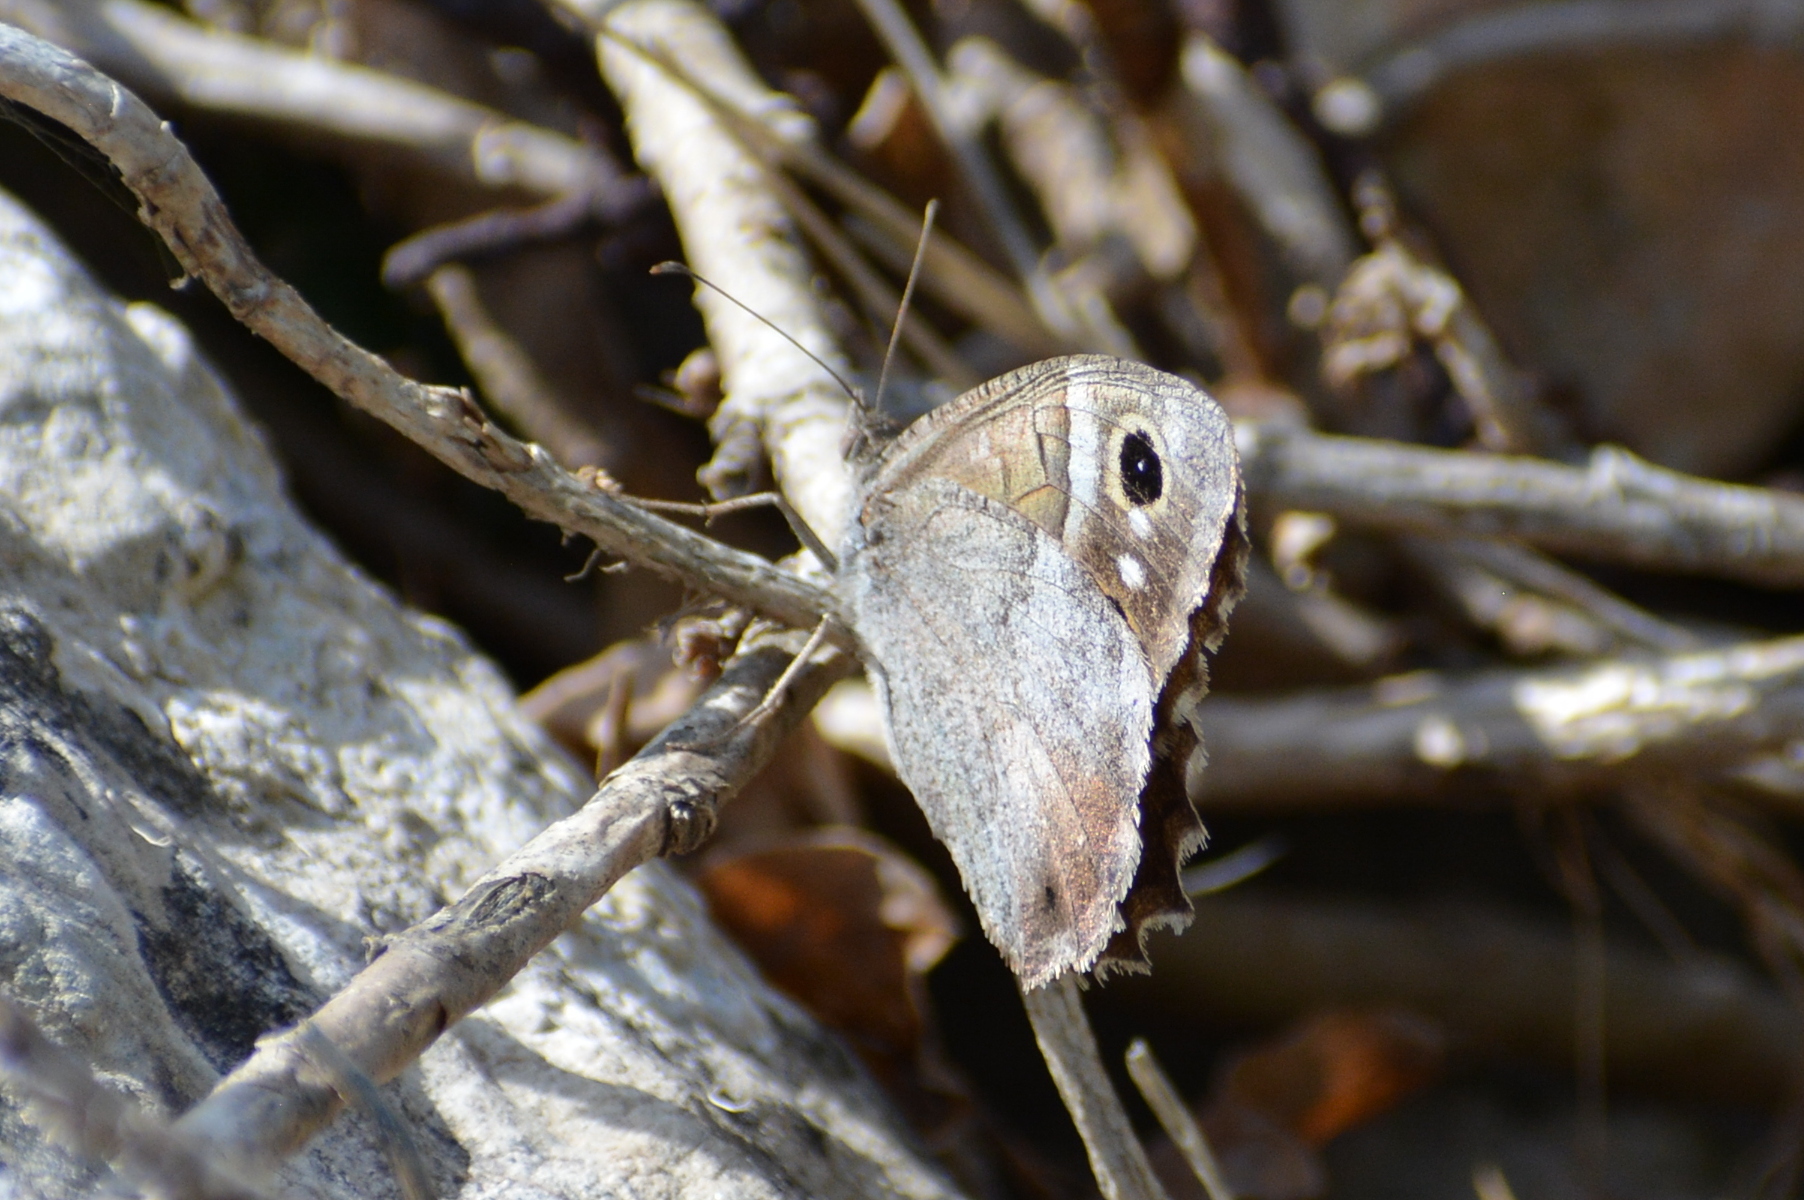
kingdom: Animalia
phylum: Arthropoda
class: Insecta
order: Lepidoptera
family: Nymphalidae
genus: Hipparchia
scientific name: Hipparchia statilinus
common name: Tree grayling
